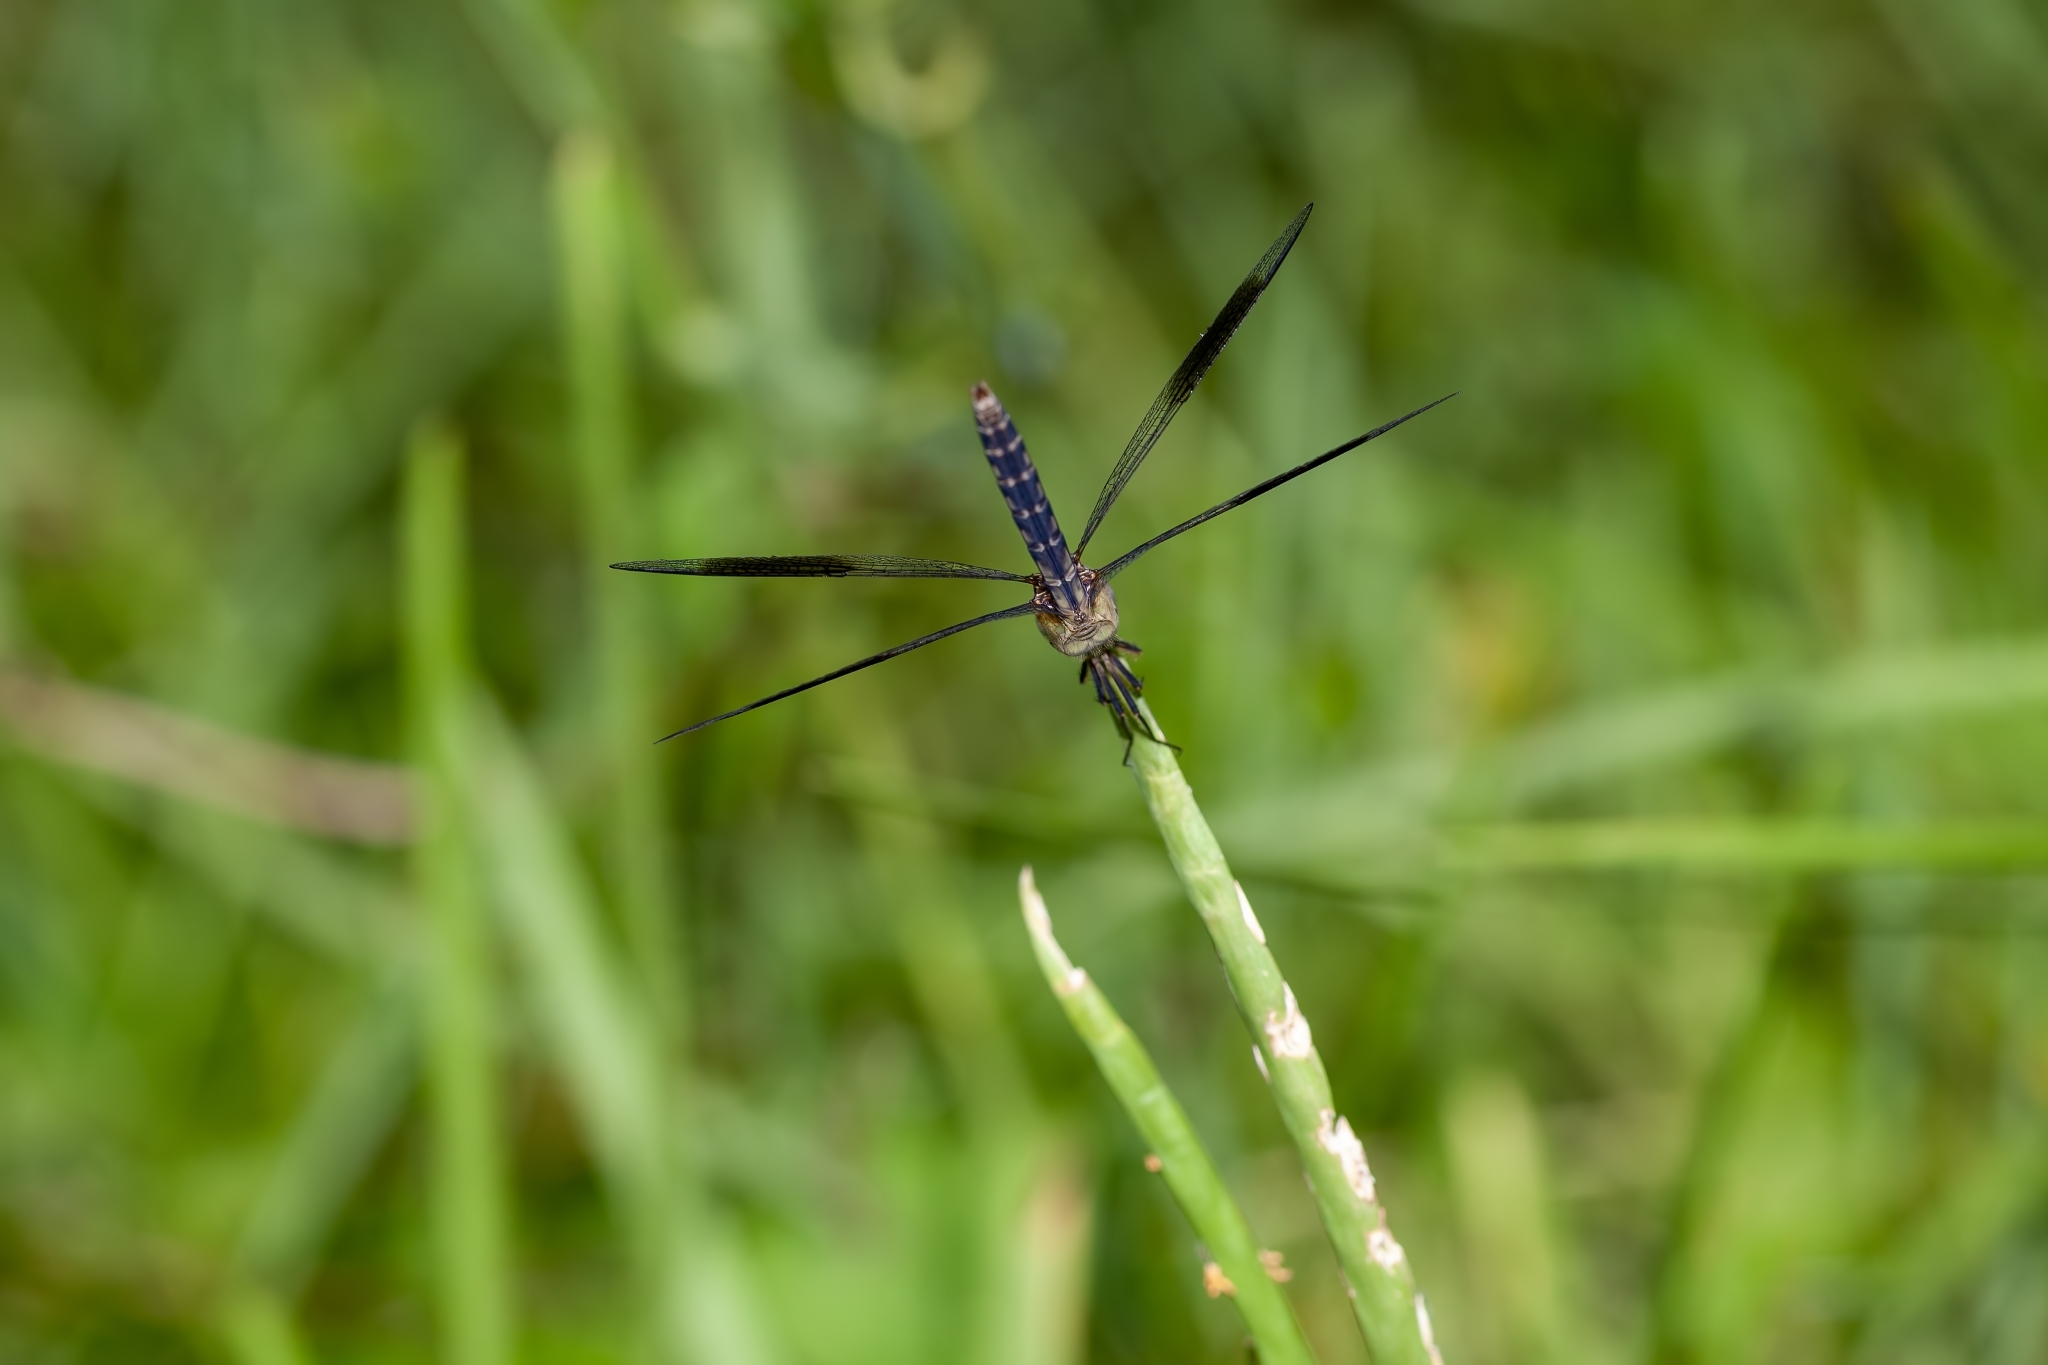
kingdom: Animalia
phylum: Arthropoda
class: Insecta
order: Odonata
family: Libellulidae
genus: Erythrodiplax
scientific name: Erythrodiplax umbrata
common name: Band-winged dragonlet
